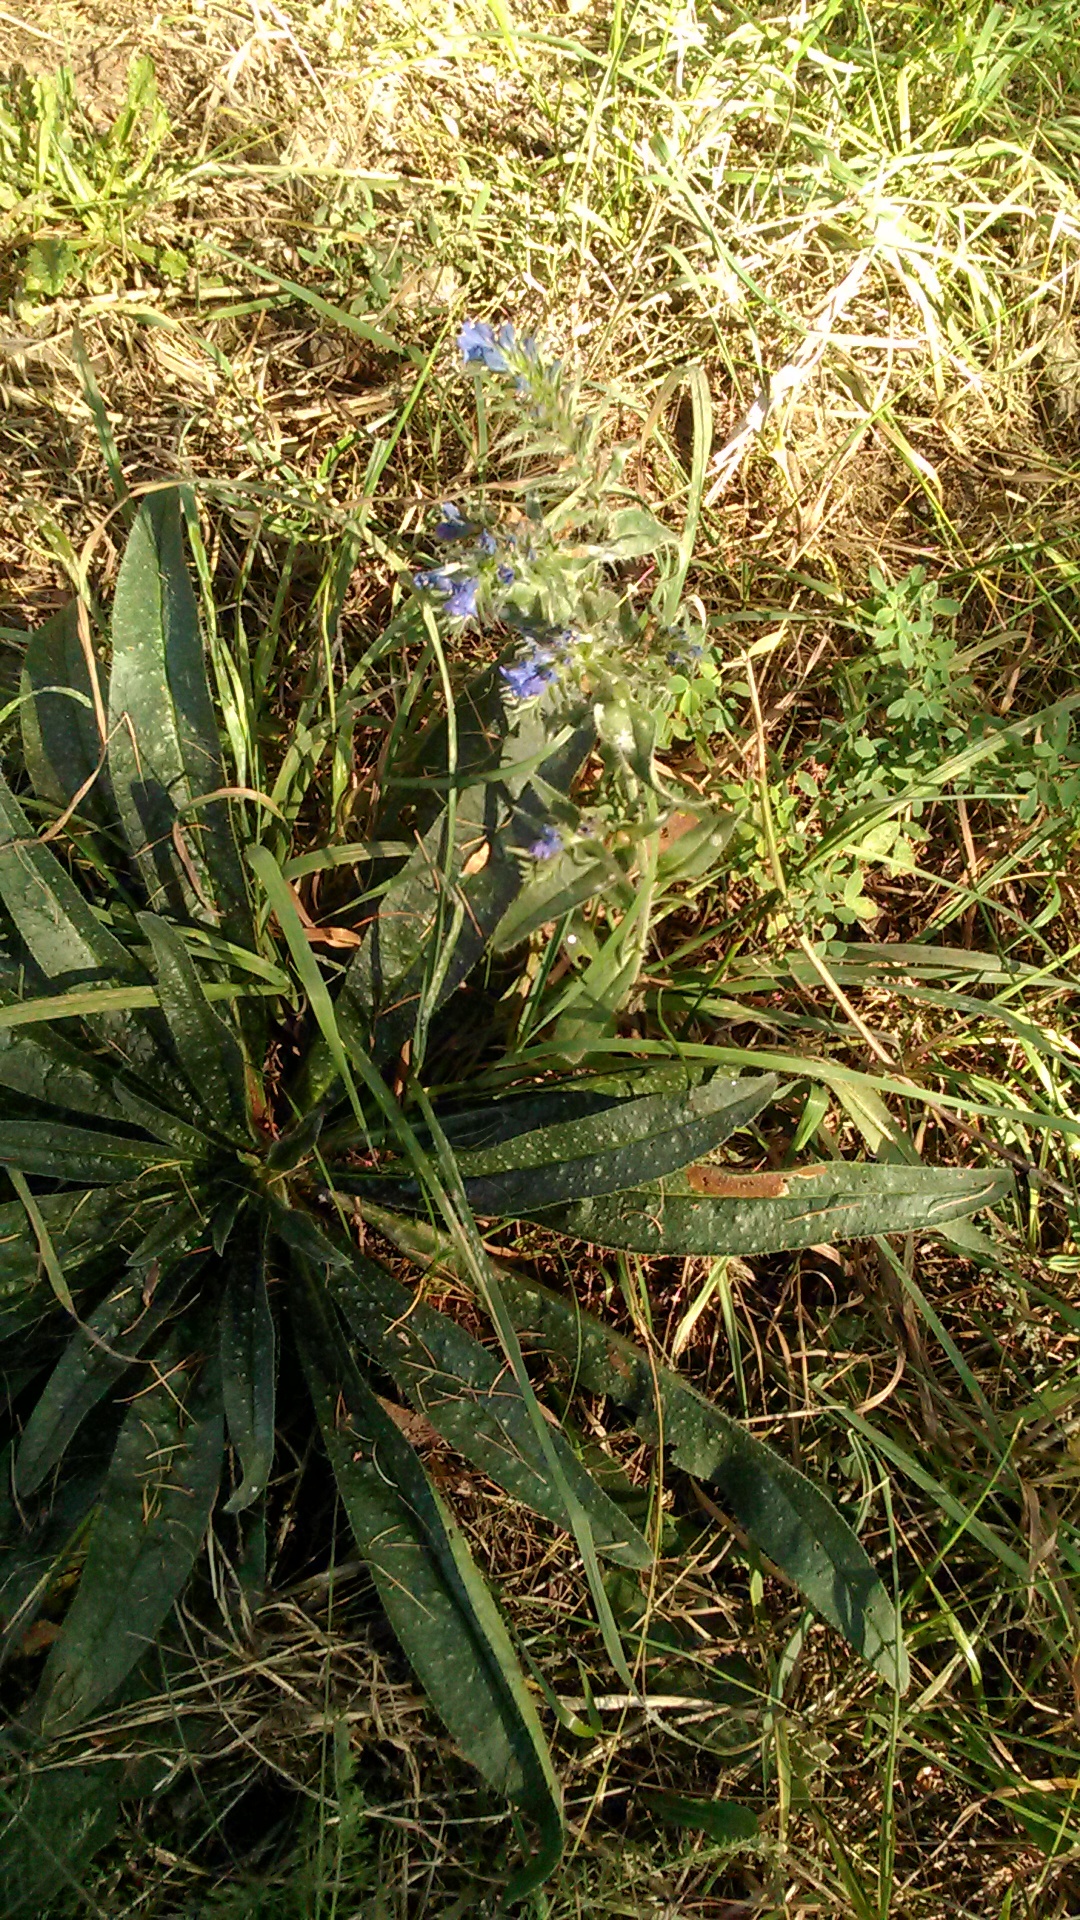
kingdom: Plantae
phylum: Tracheophyta
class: Magnoliopsida
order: Boraginales
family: Boraginaceae
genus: Echium
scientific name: Echium vulgare
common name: Common viper's bugloss
